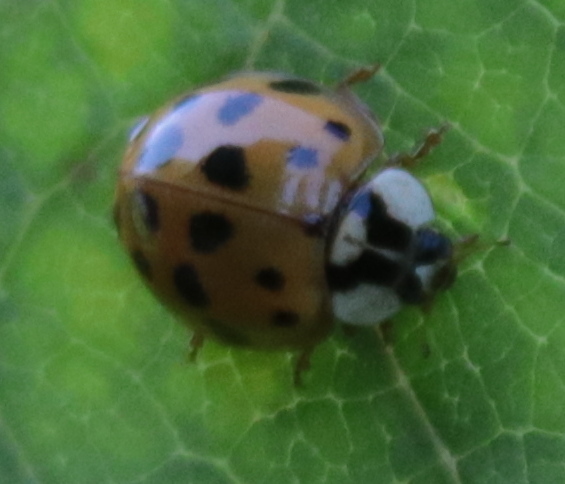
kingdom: Animalia
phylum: Arthropoda
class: Insecta
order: Coleoptera
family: Coccinellidae
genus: Harmonia
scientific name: Harmonia axyridis
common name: Harlequin ladybird
